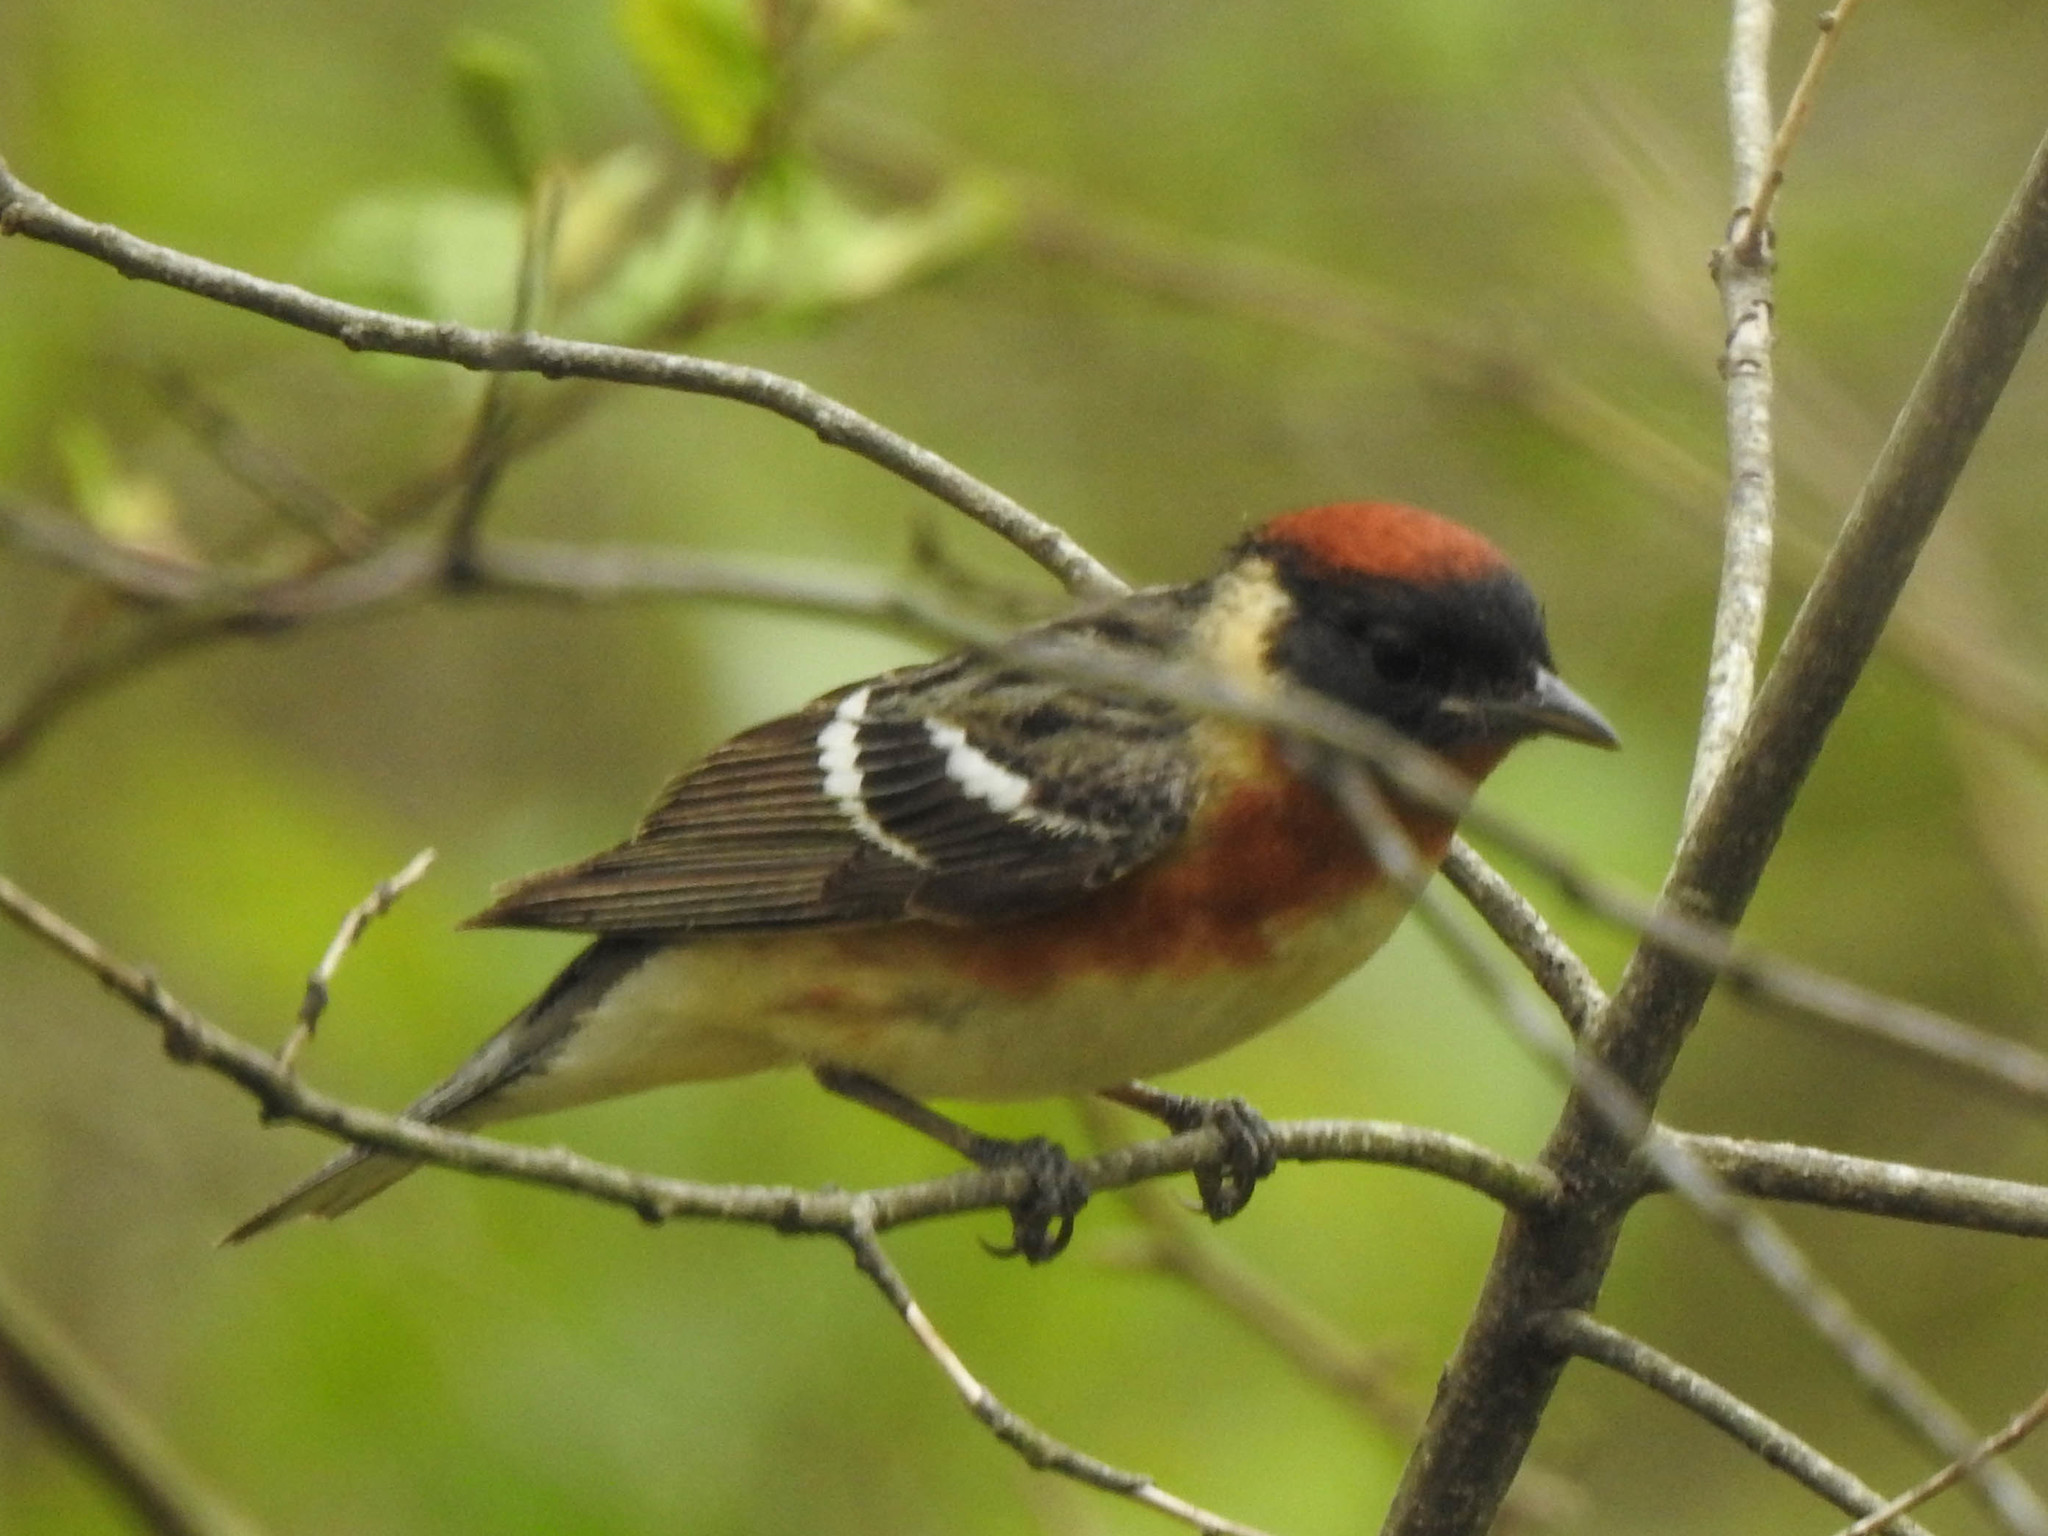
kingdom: Animalia
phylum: Chordata
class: Aves
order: Passeriformes
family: Parulidae
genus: Setophaga
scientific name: Setophaga castanea
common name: Bay-breasted warbler
